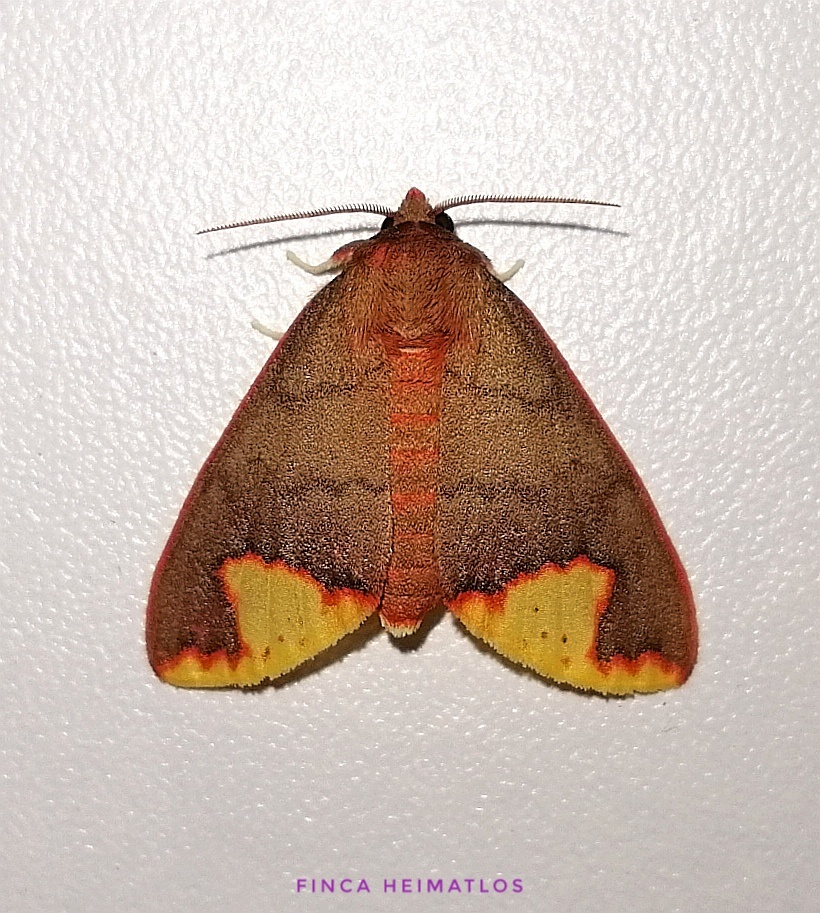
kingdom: Animalia
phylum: Arthropoda
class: Insecta
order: Lepidoptera
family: Erebidae
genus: Pseudepimolis
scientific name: Pseudepimolis incisa
